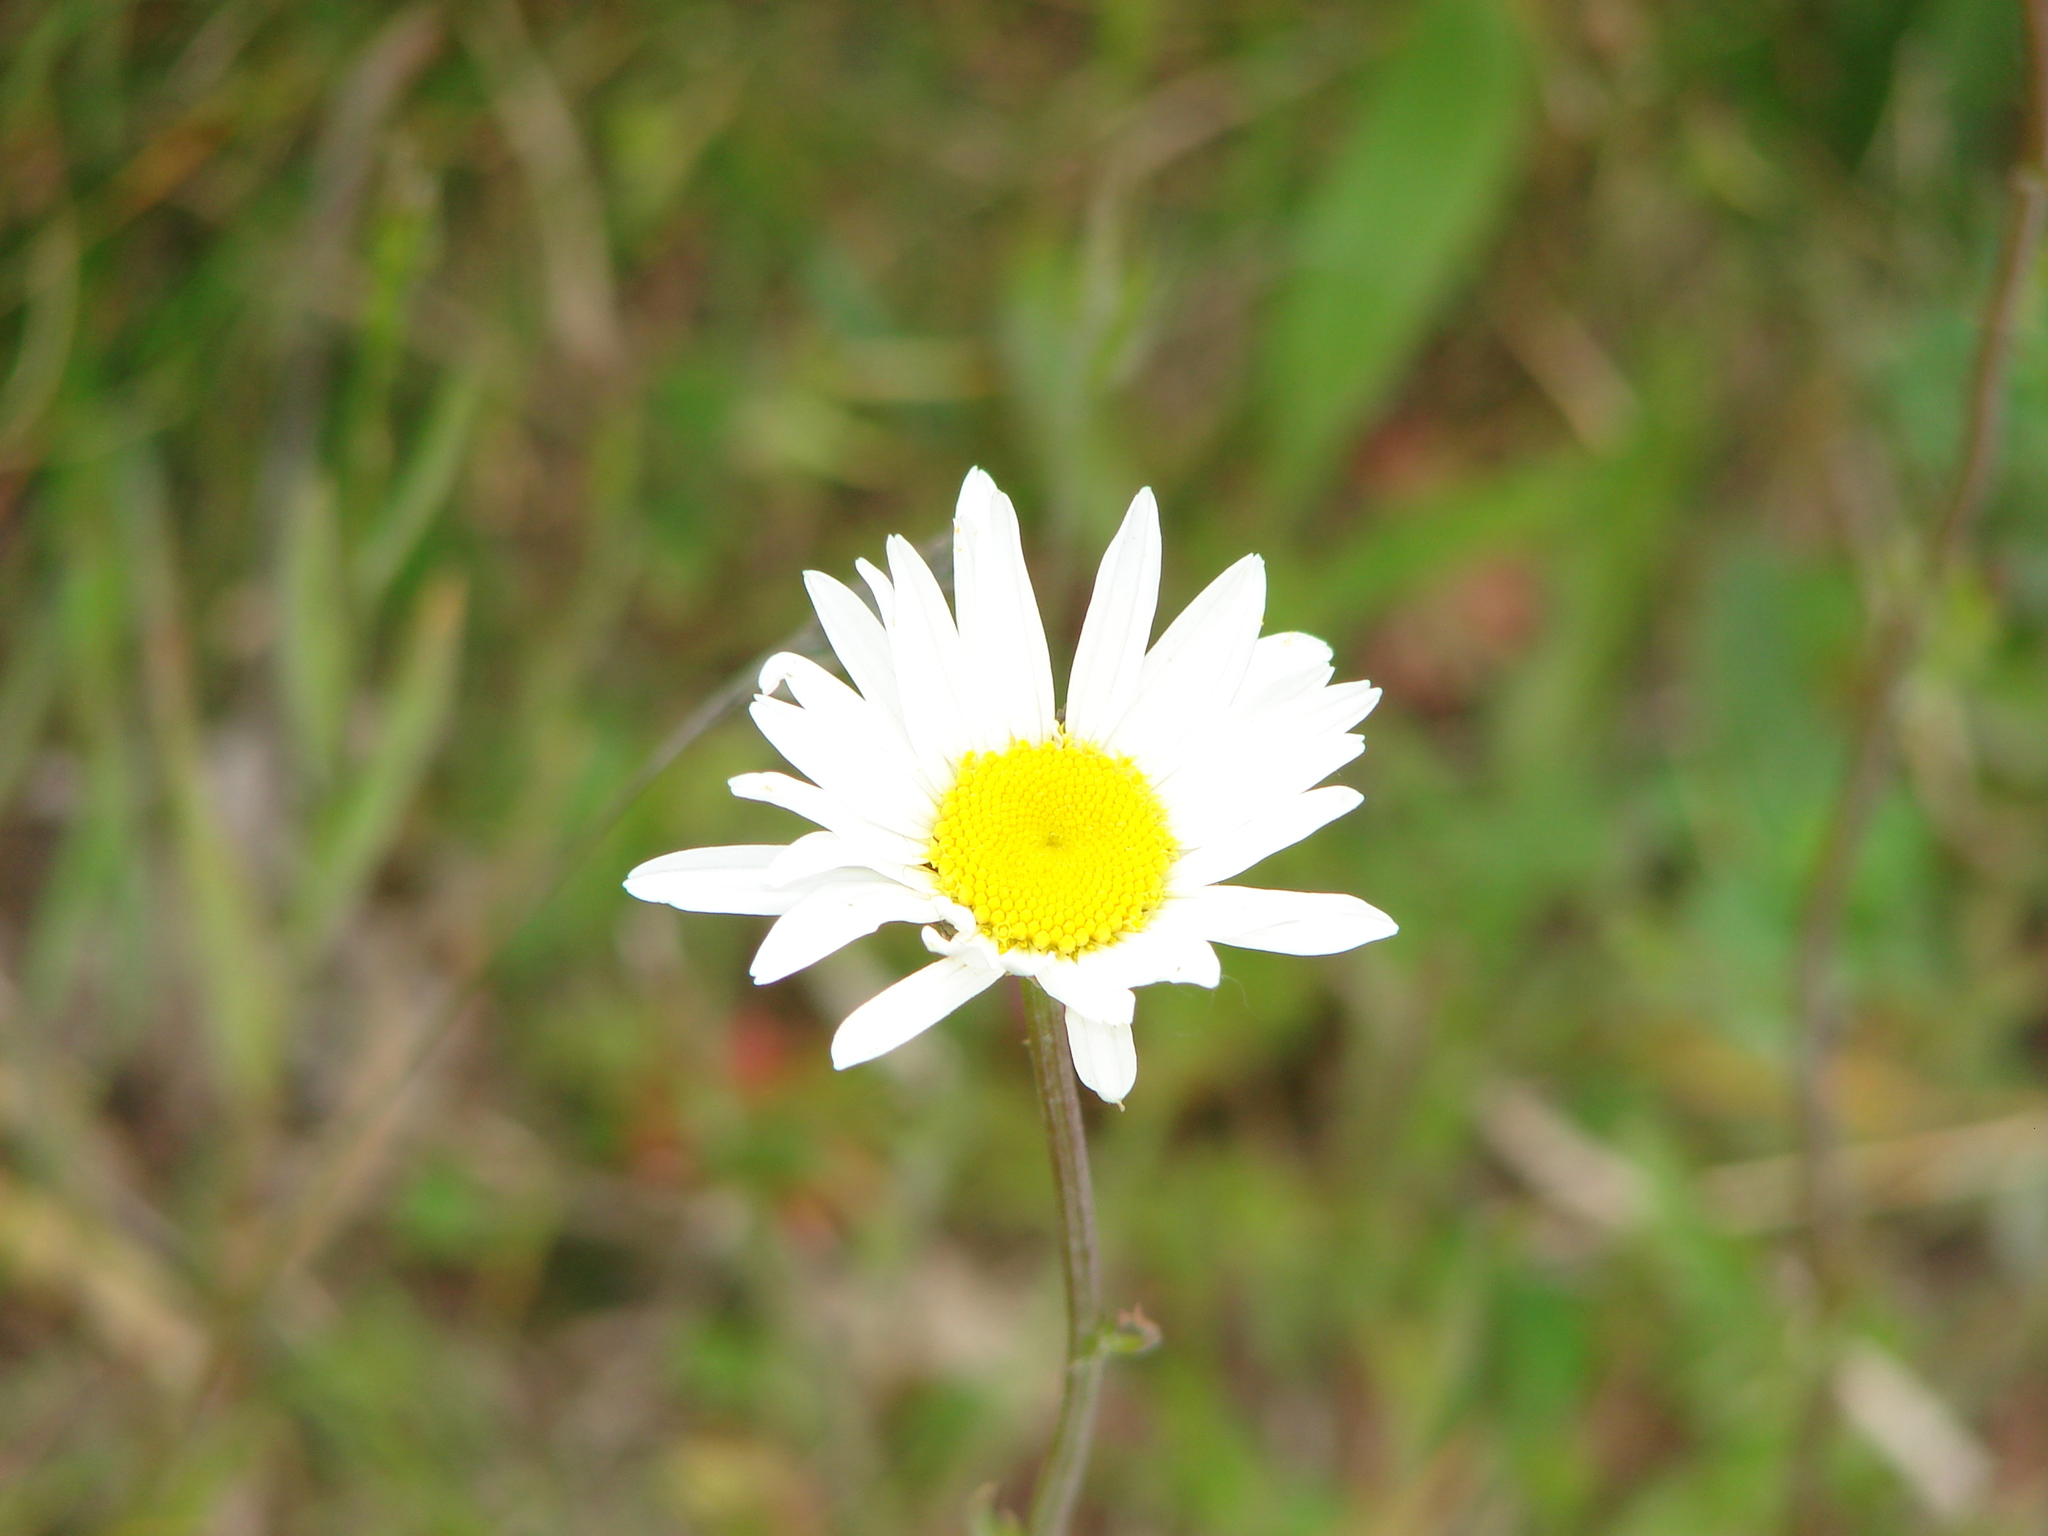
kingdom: Plantae
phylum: Tracheophyta
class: Magnoliopsida
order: Asterales
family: Asteraceae
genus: Leucanthemum
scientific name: Leucanthemum vulgare
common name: Oxeye daisy
